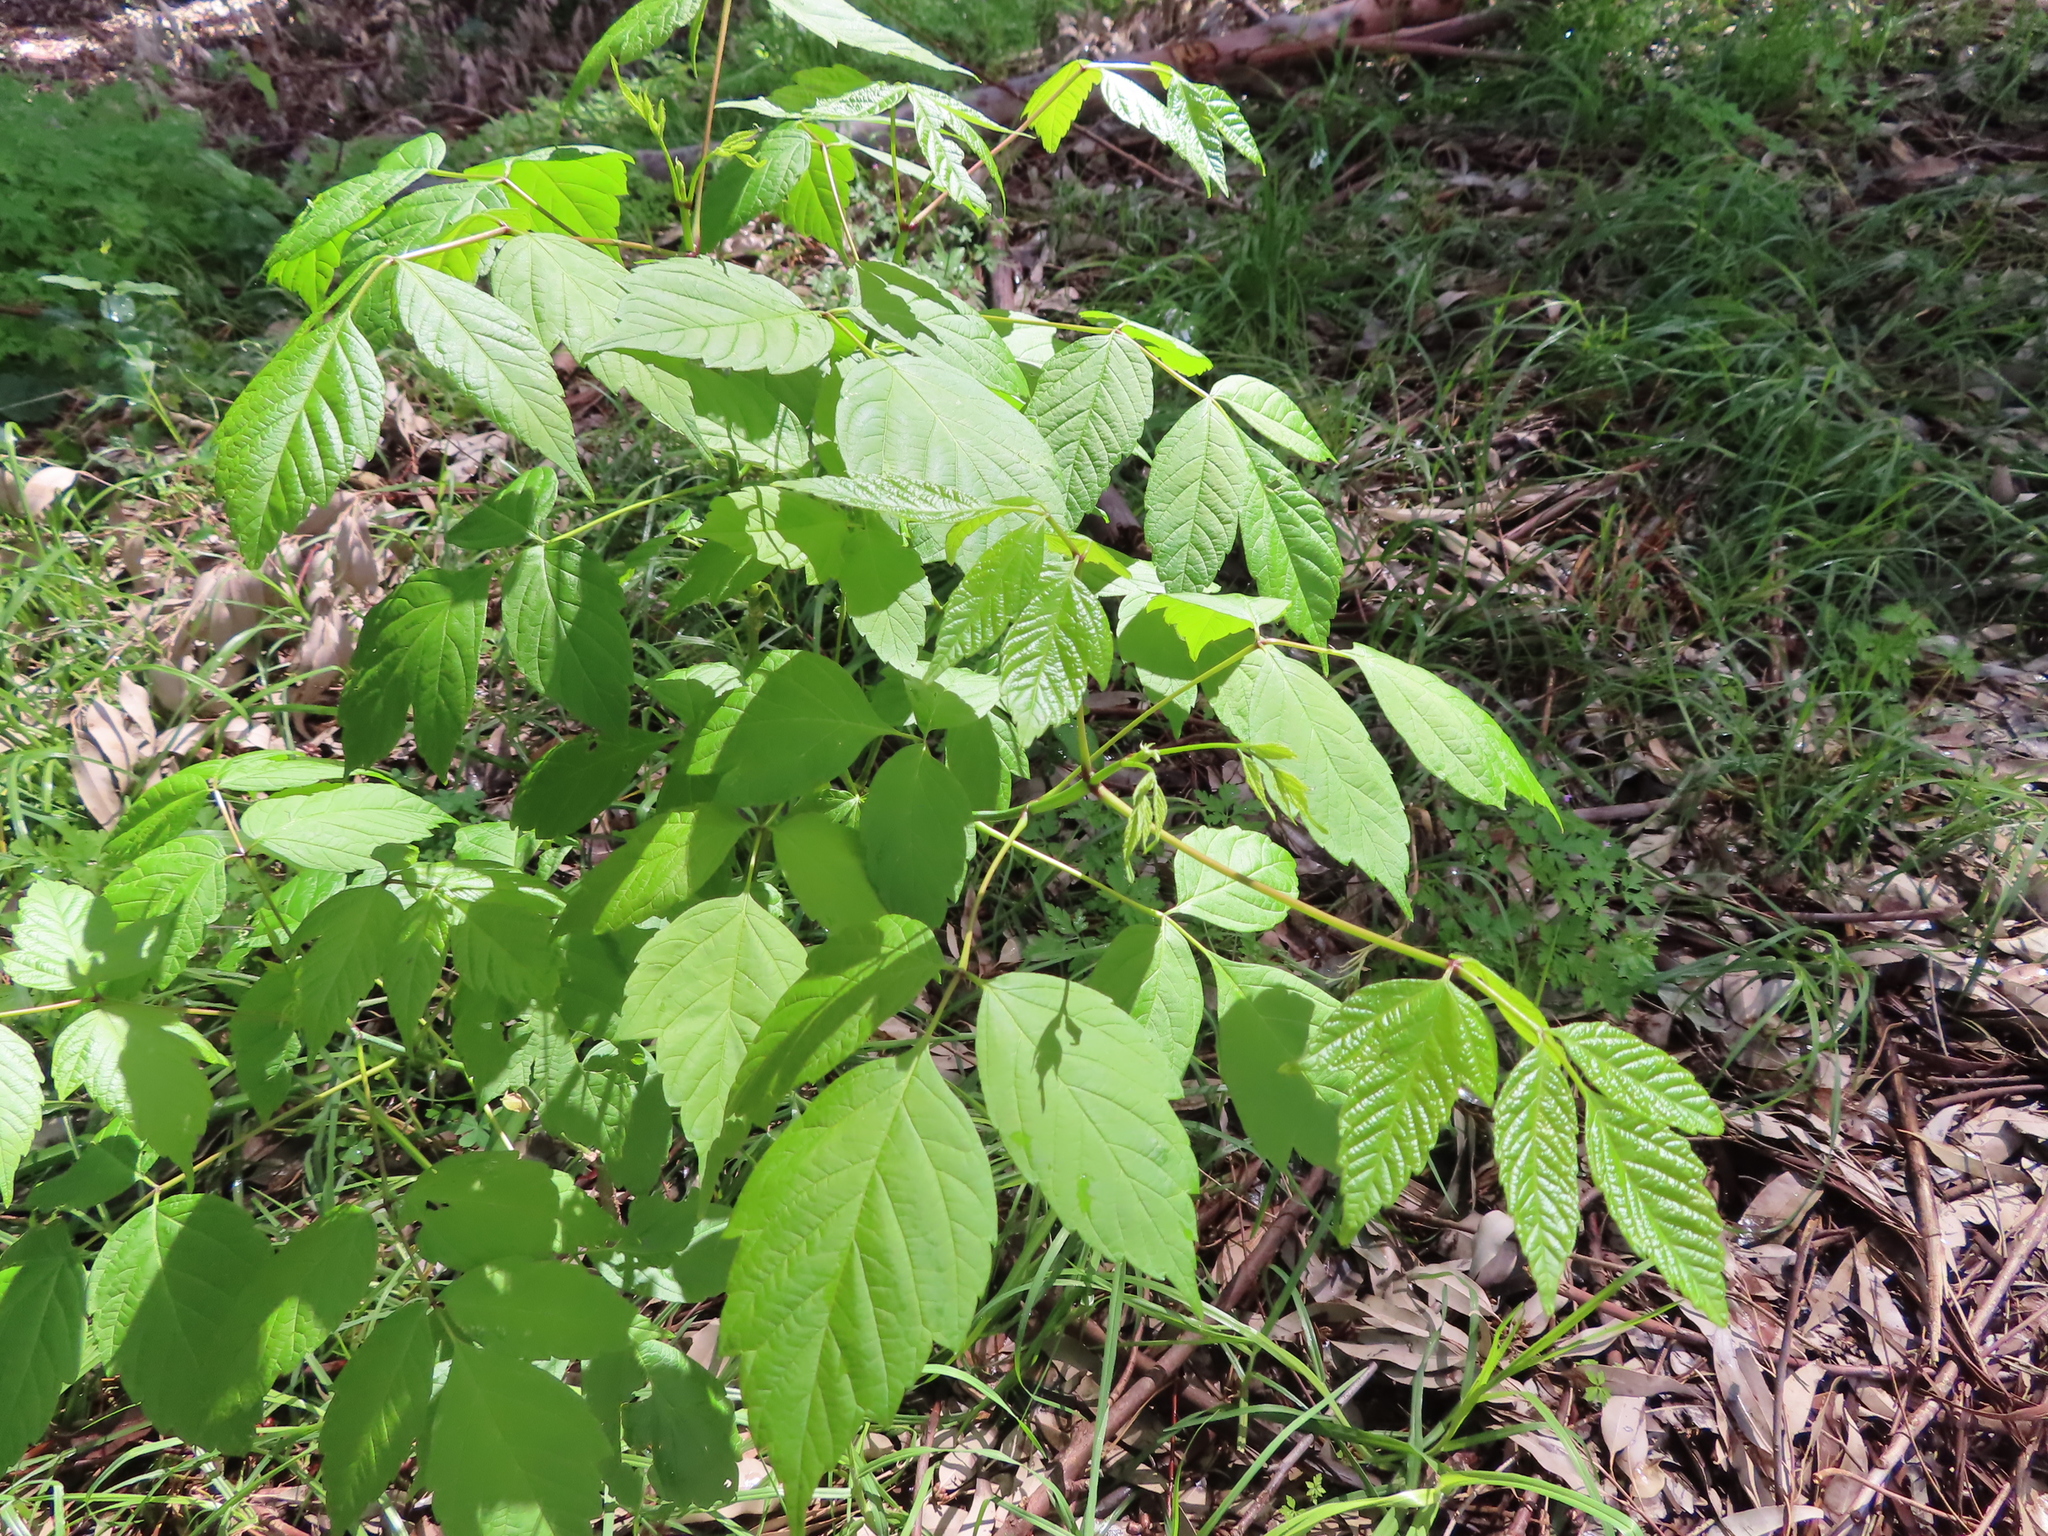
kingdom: Plantae
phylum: Tracheophyta
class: Magnoliopsida
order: Sapindales
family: Sapindaceae
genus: Acer
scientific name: Acer negundo
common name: Ashleaf maple
